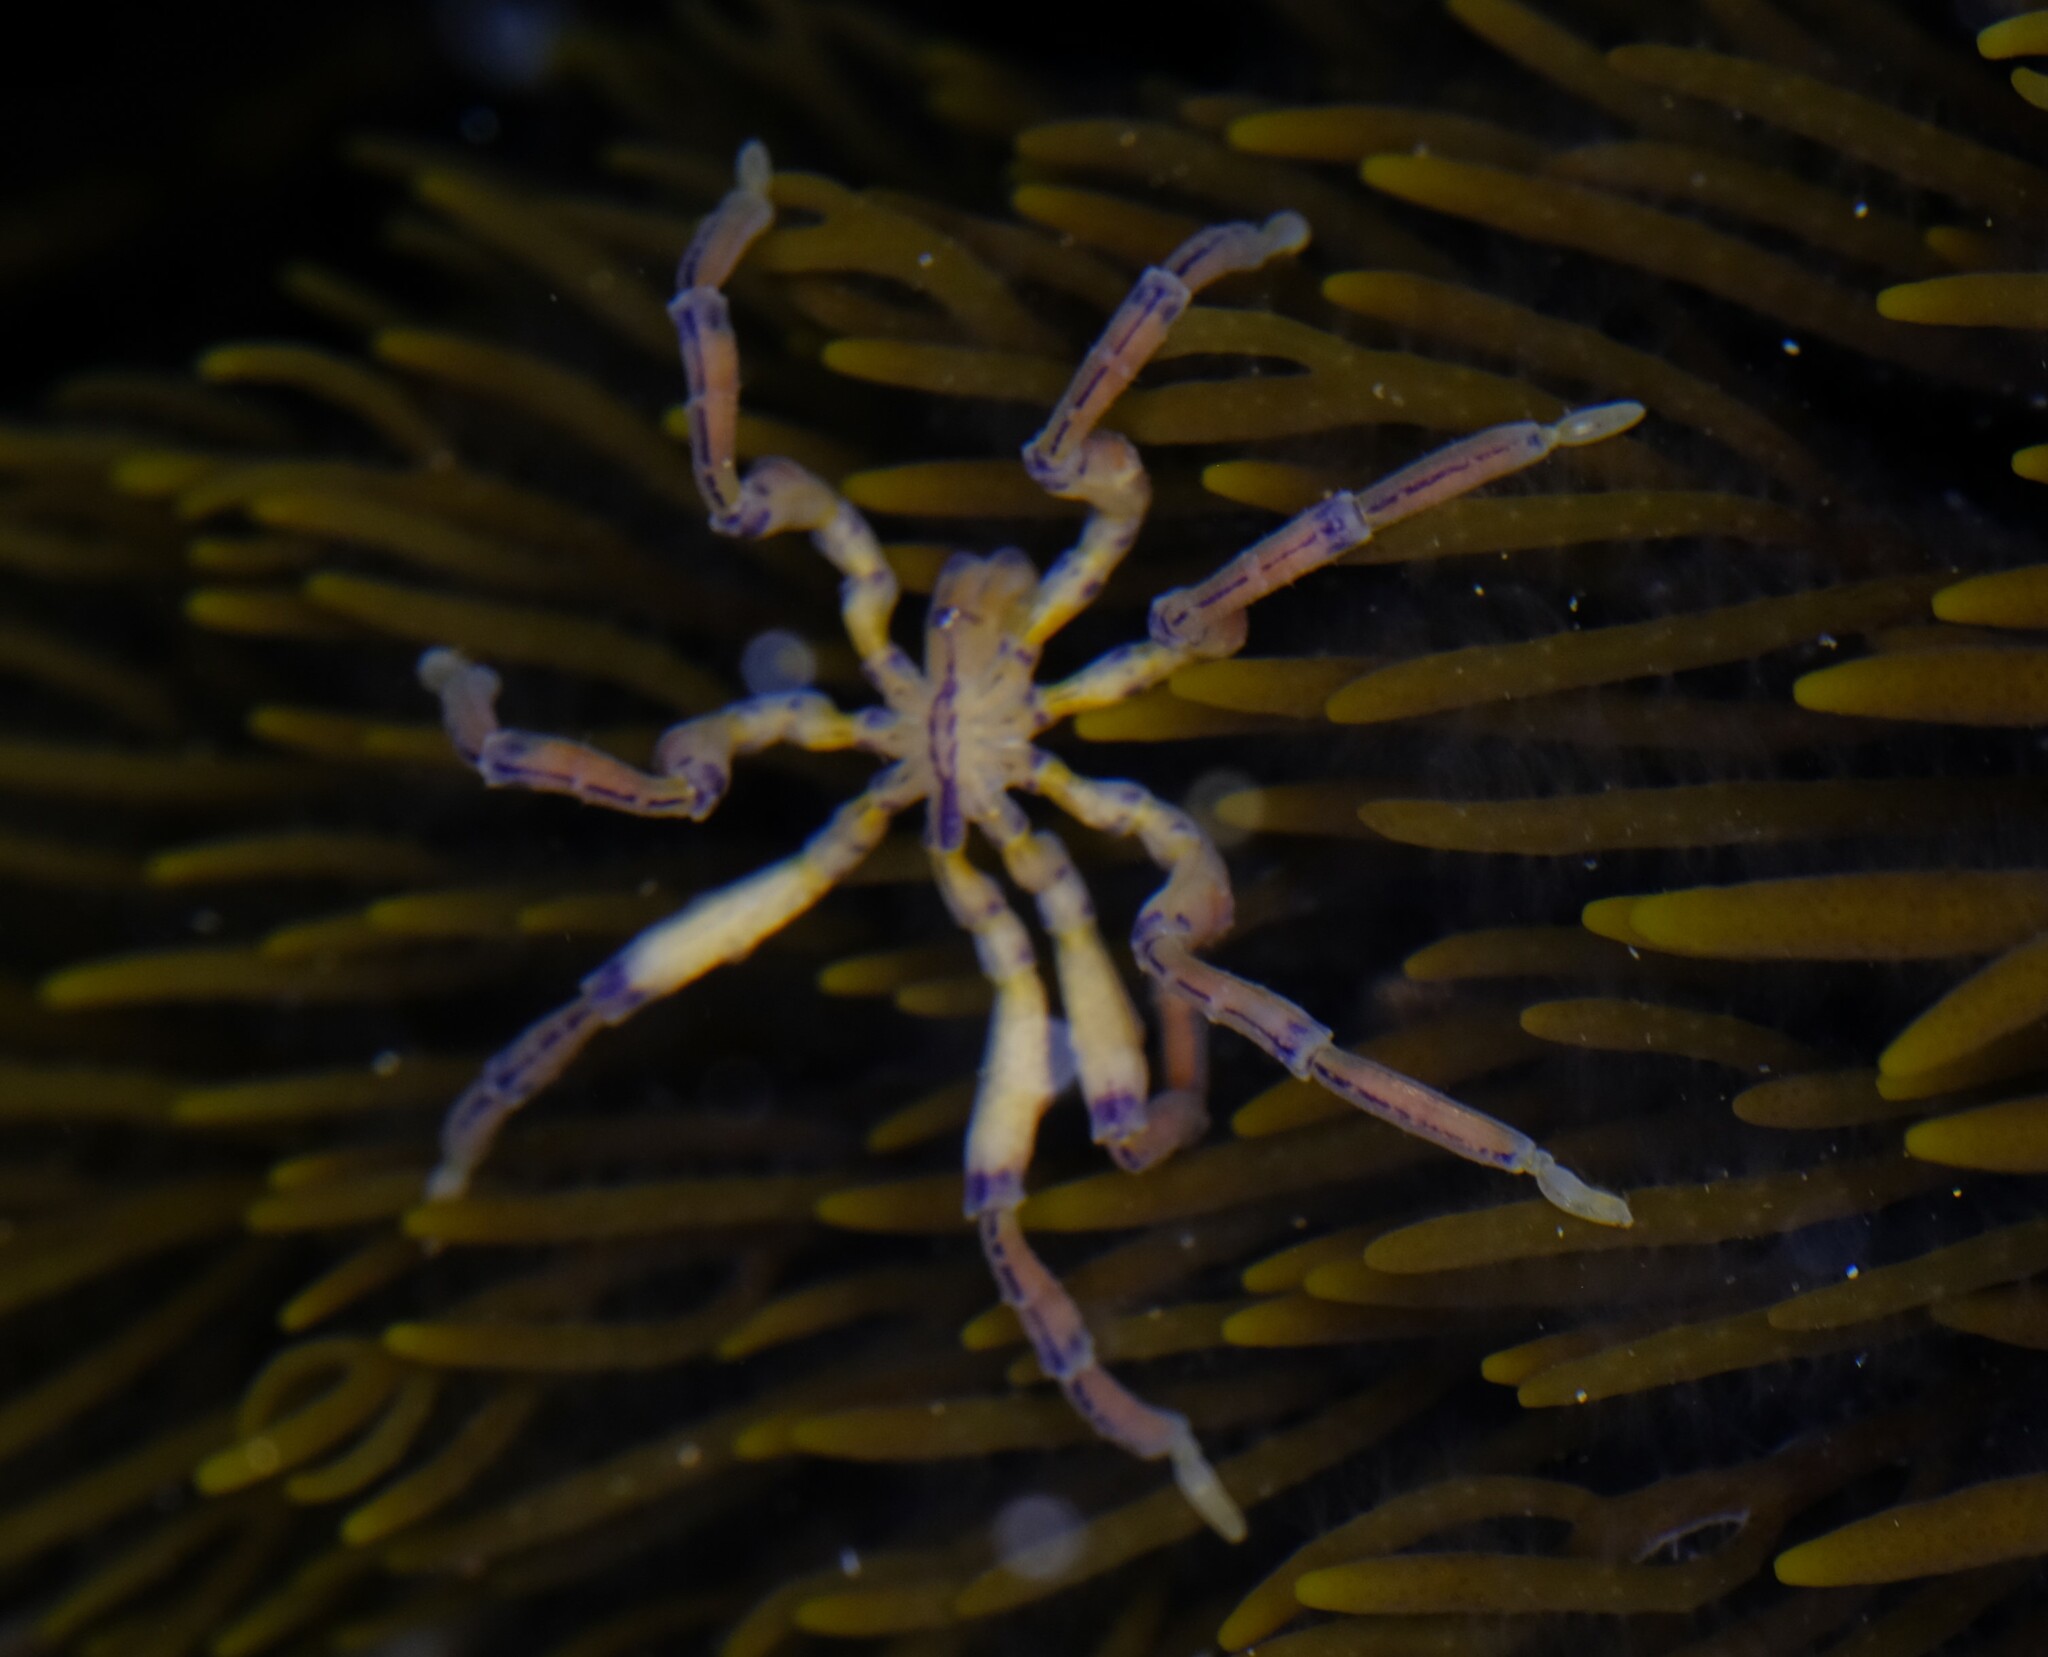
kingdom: Animalia
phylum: Arthropoda
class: Pycnogonida
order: Pantopoda
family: Pallenopsidae
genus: Pallenopsis
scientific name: Pallenopsis macneilli
